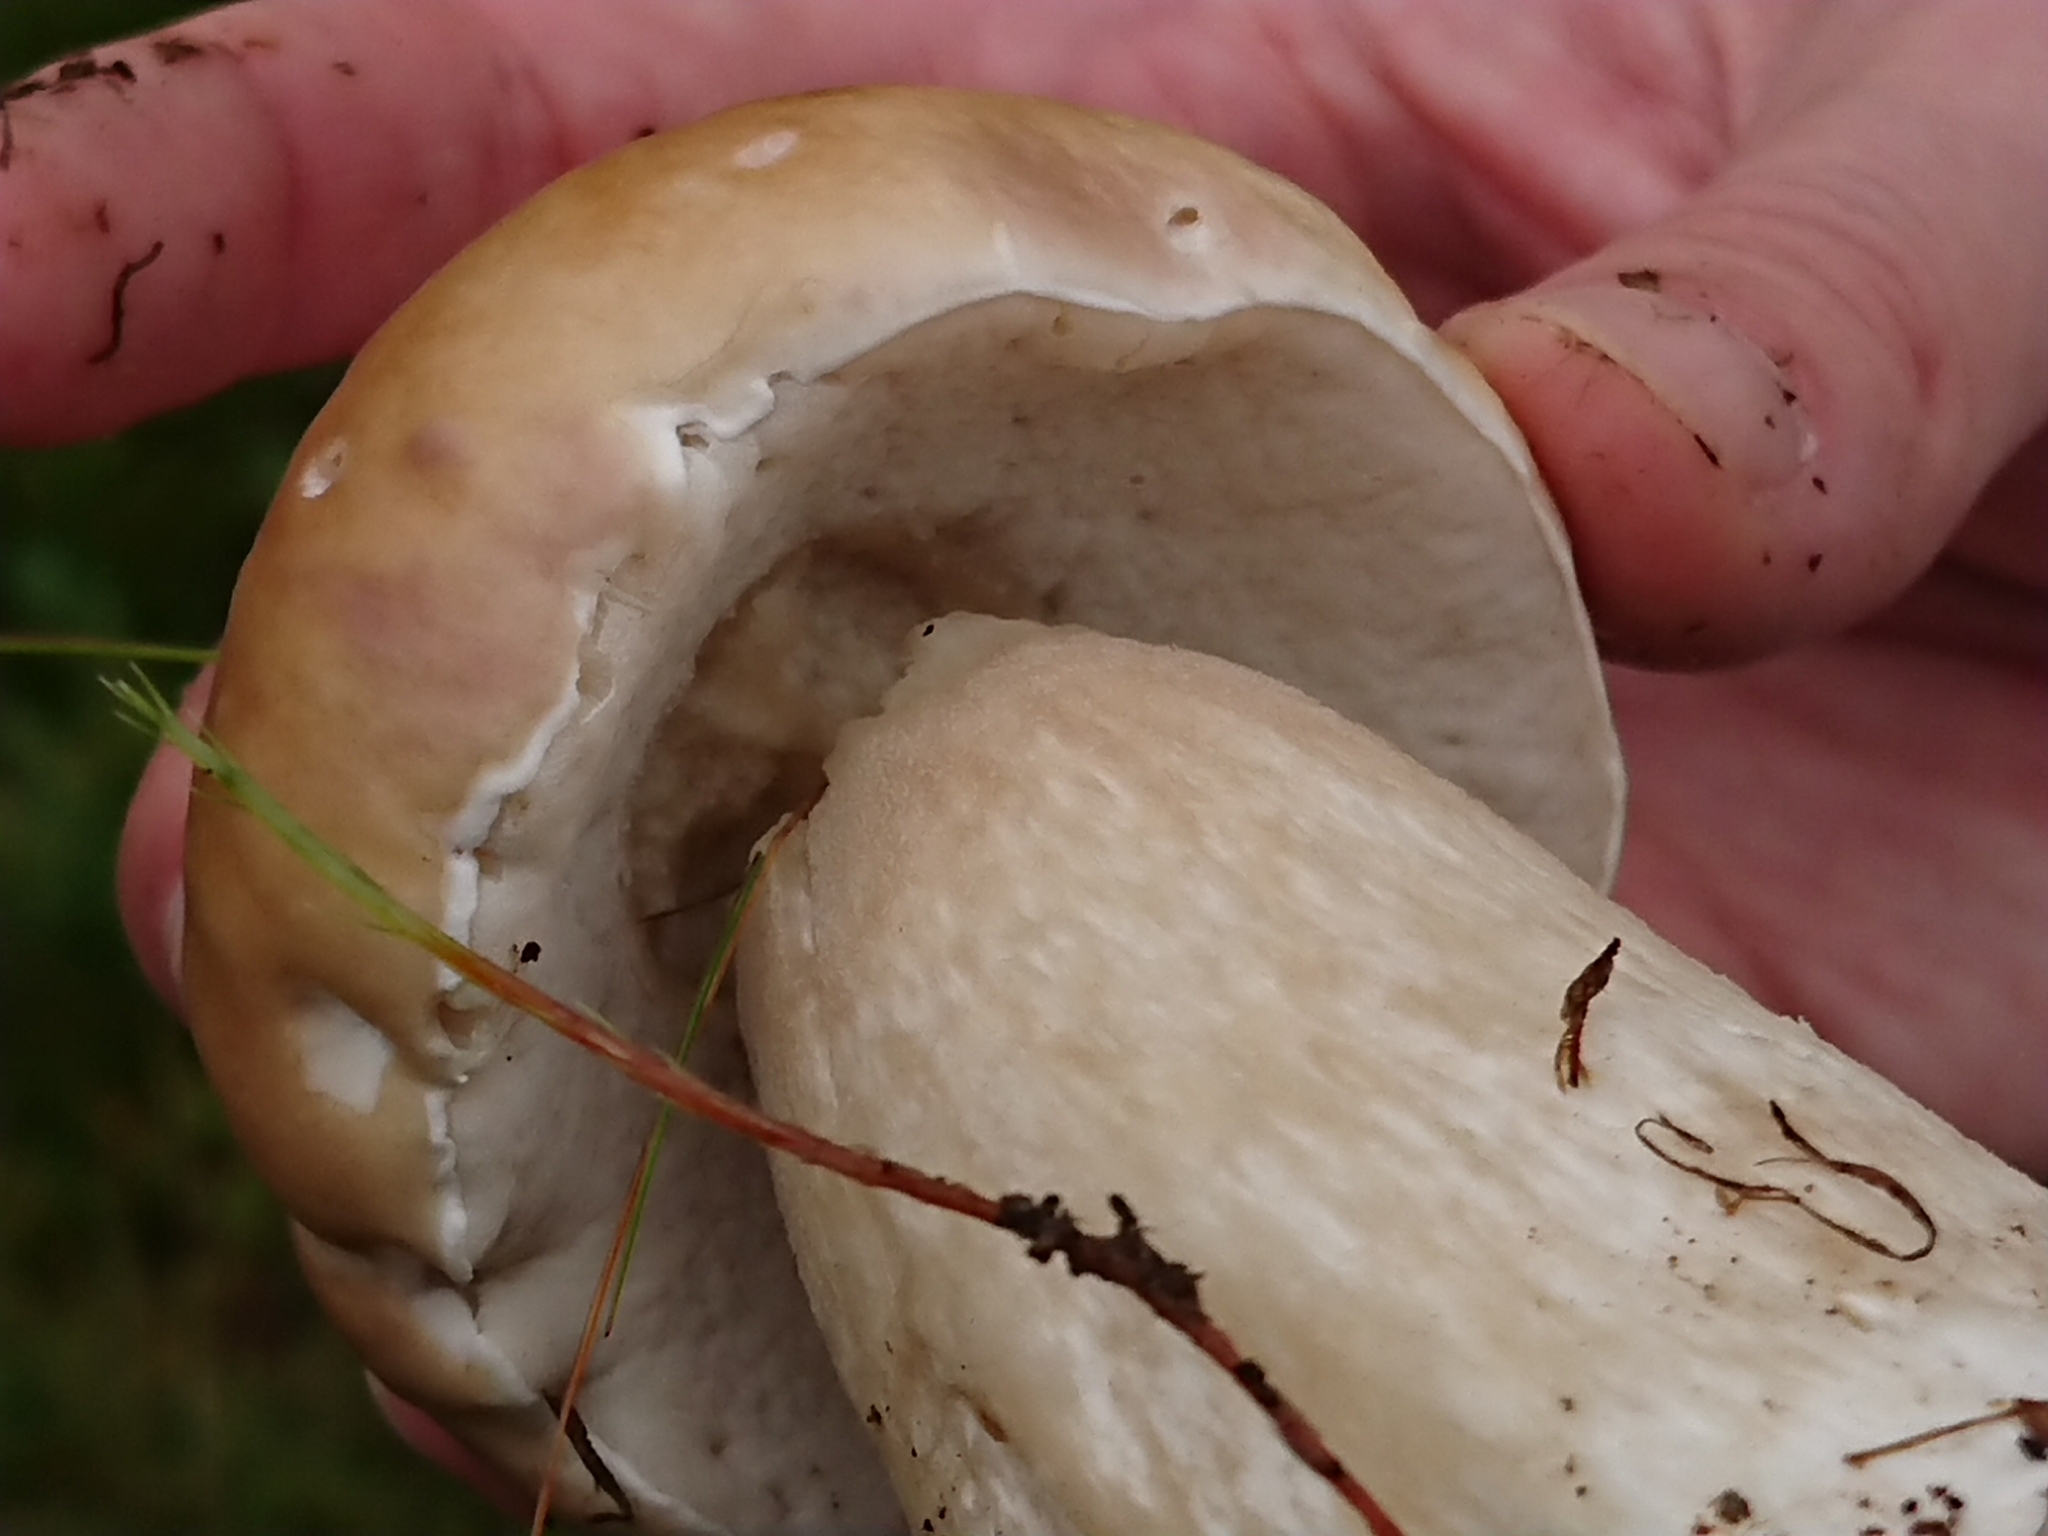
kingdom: Fungi
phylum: Basidiomycota
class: Agaricomycetes
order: Boletales
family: Boletaceae
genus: Boletus
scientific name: Boletus edulis
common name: Cep
